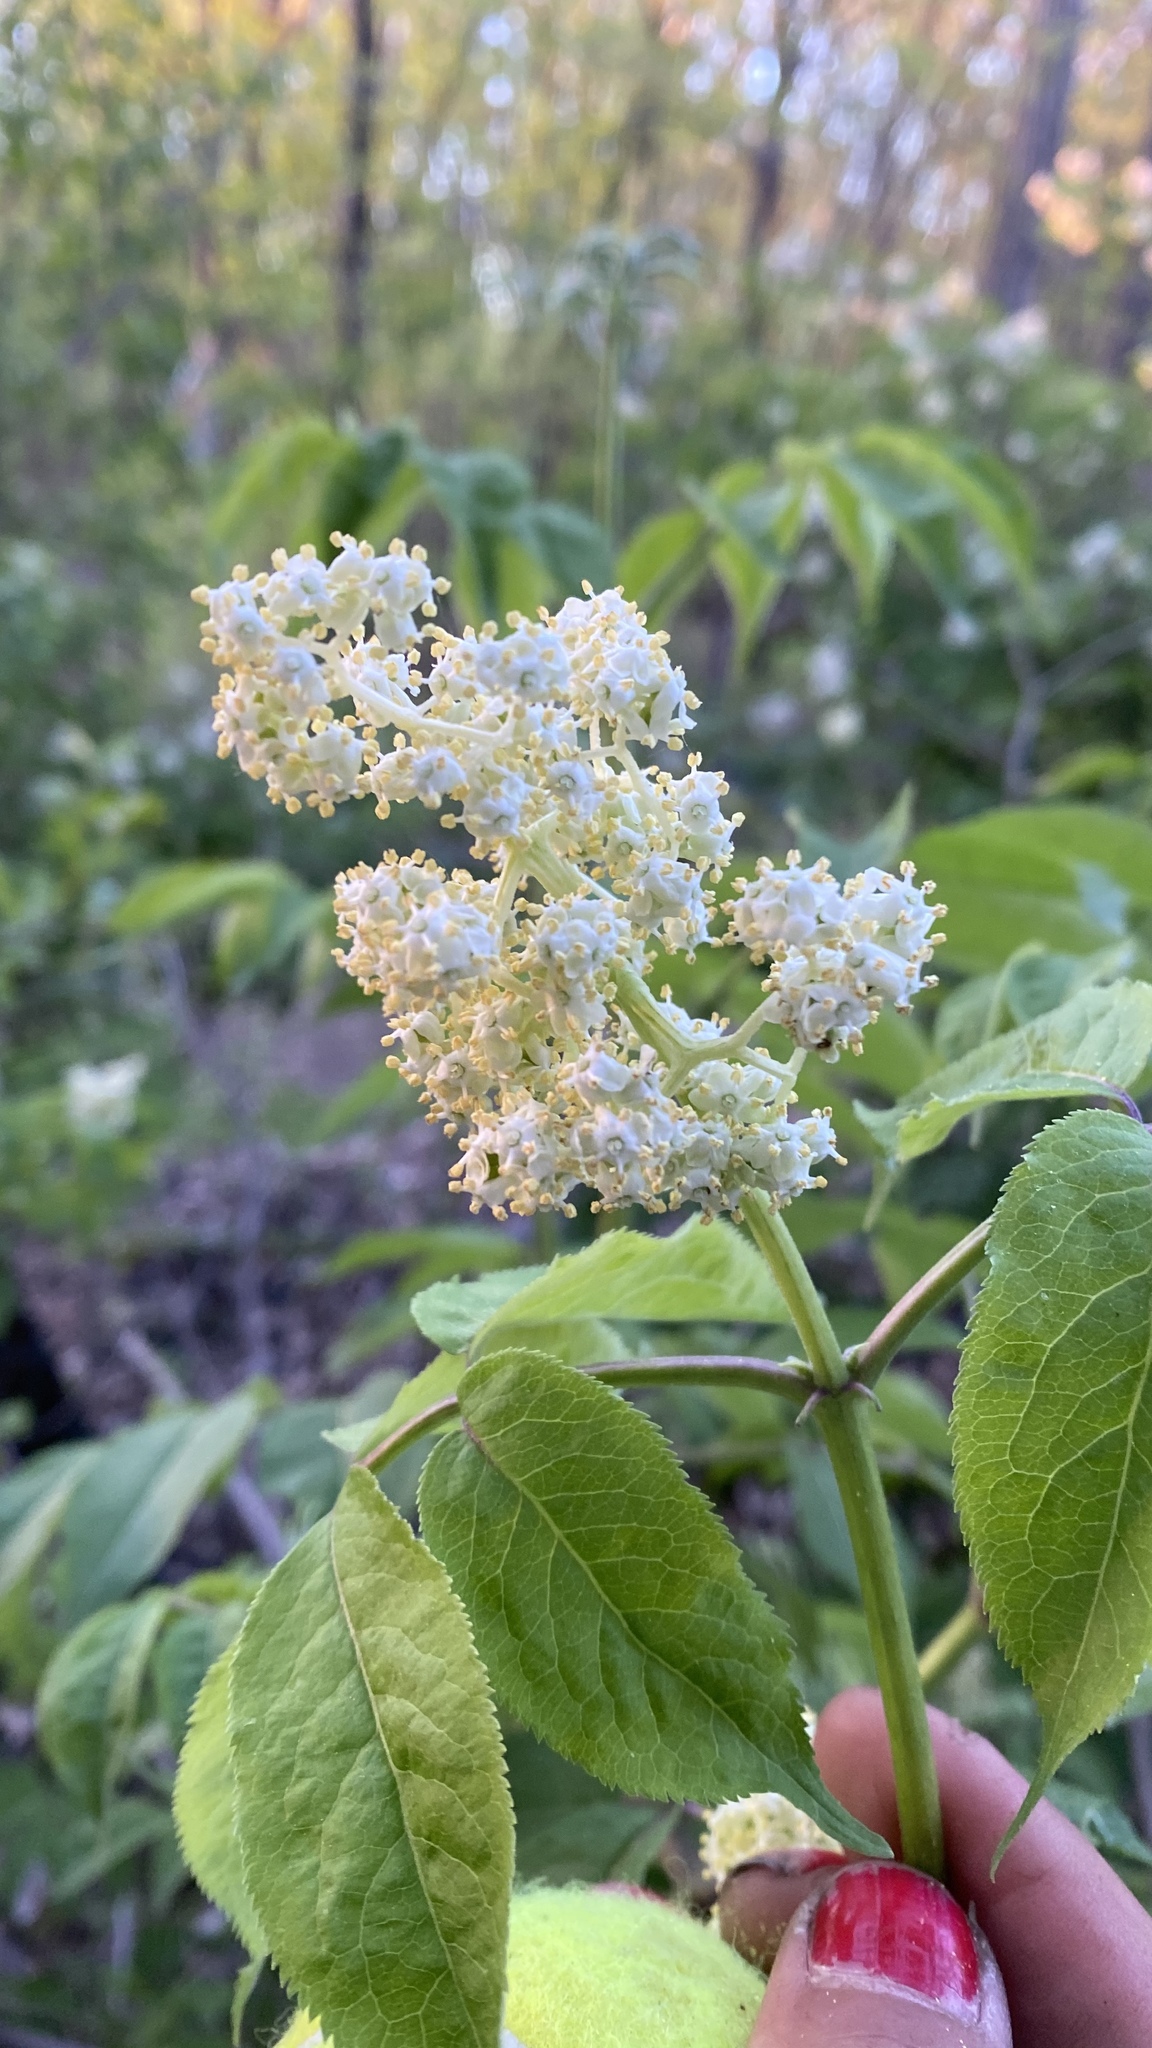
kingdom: Plantae
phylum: Tracheophyta
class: Magnoliopsida
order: Dipsacales
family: Viburnaceae
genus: Sambucus
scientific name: Sambucus racemosa
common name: Red-berried elder
